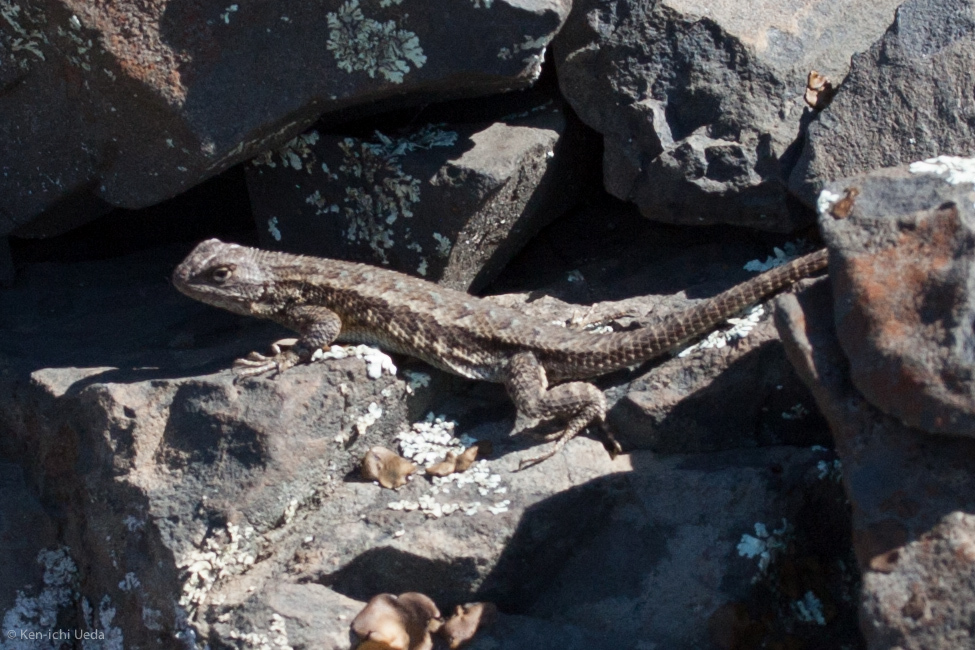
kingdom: Animalia
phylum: Chordata
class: Squamata
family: Phrynosomatidae
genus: Sceloporus
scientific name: Sceloporus occidentalis
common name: Western fence lizard
